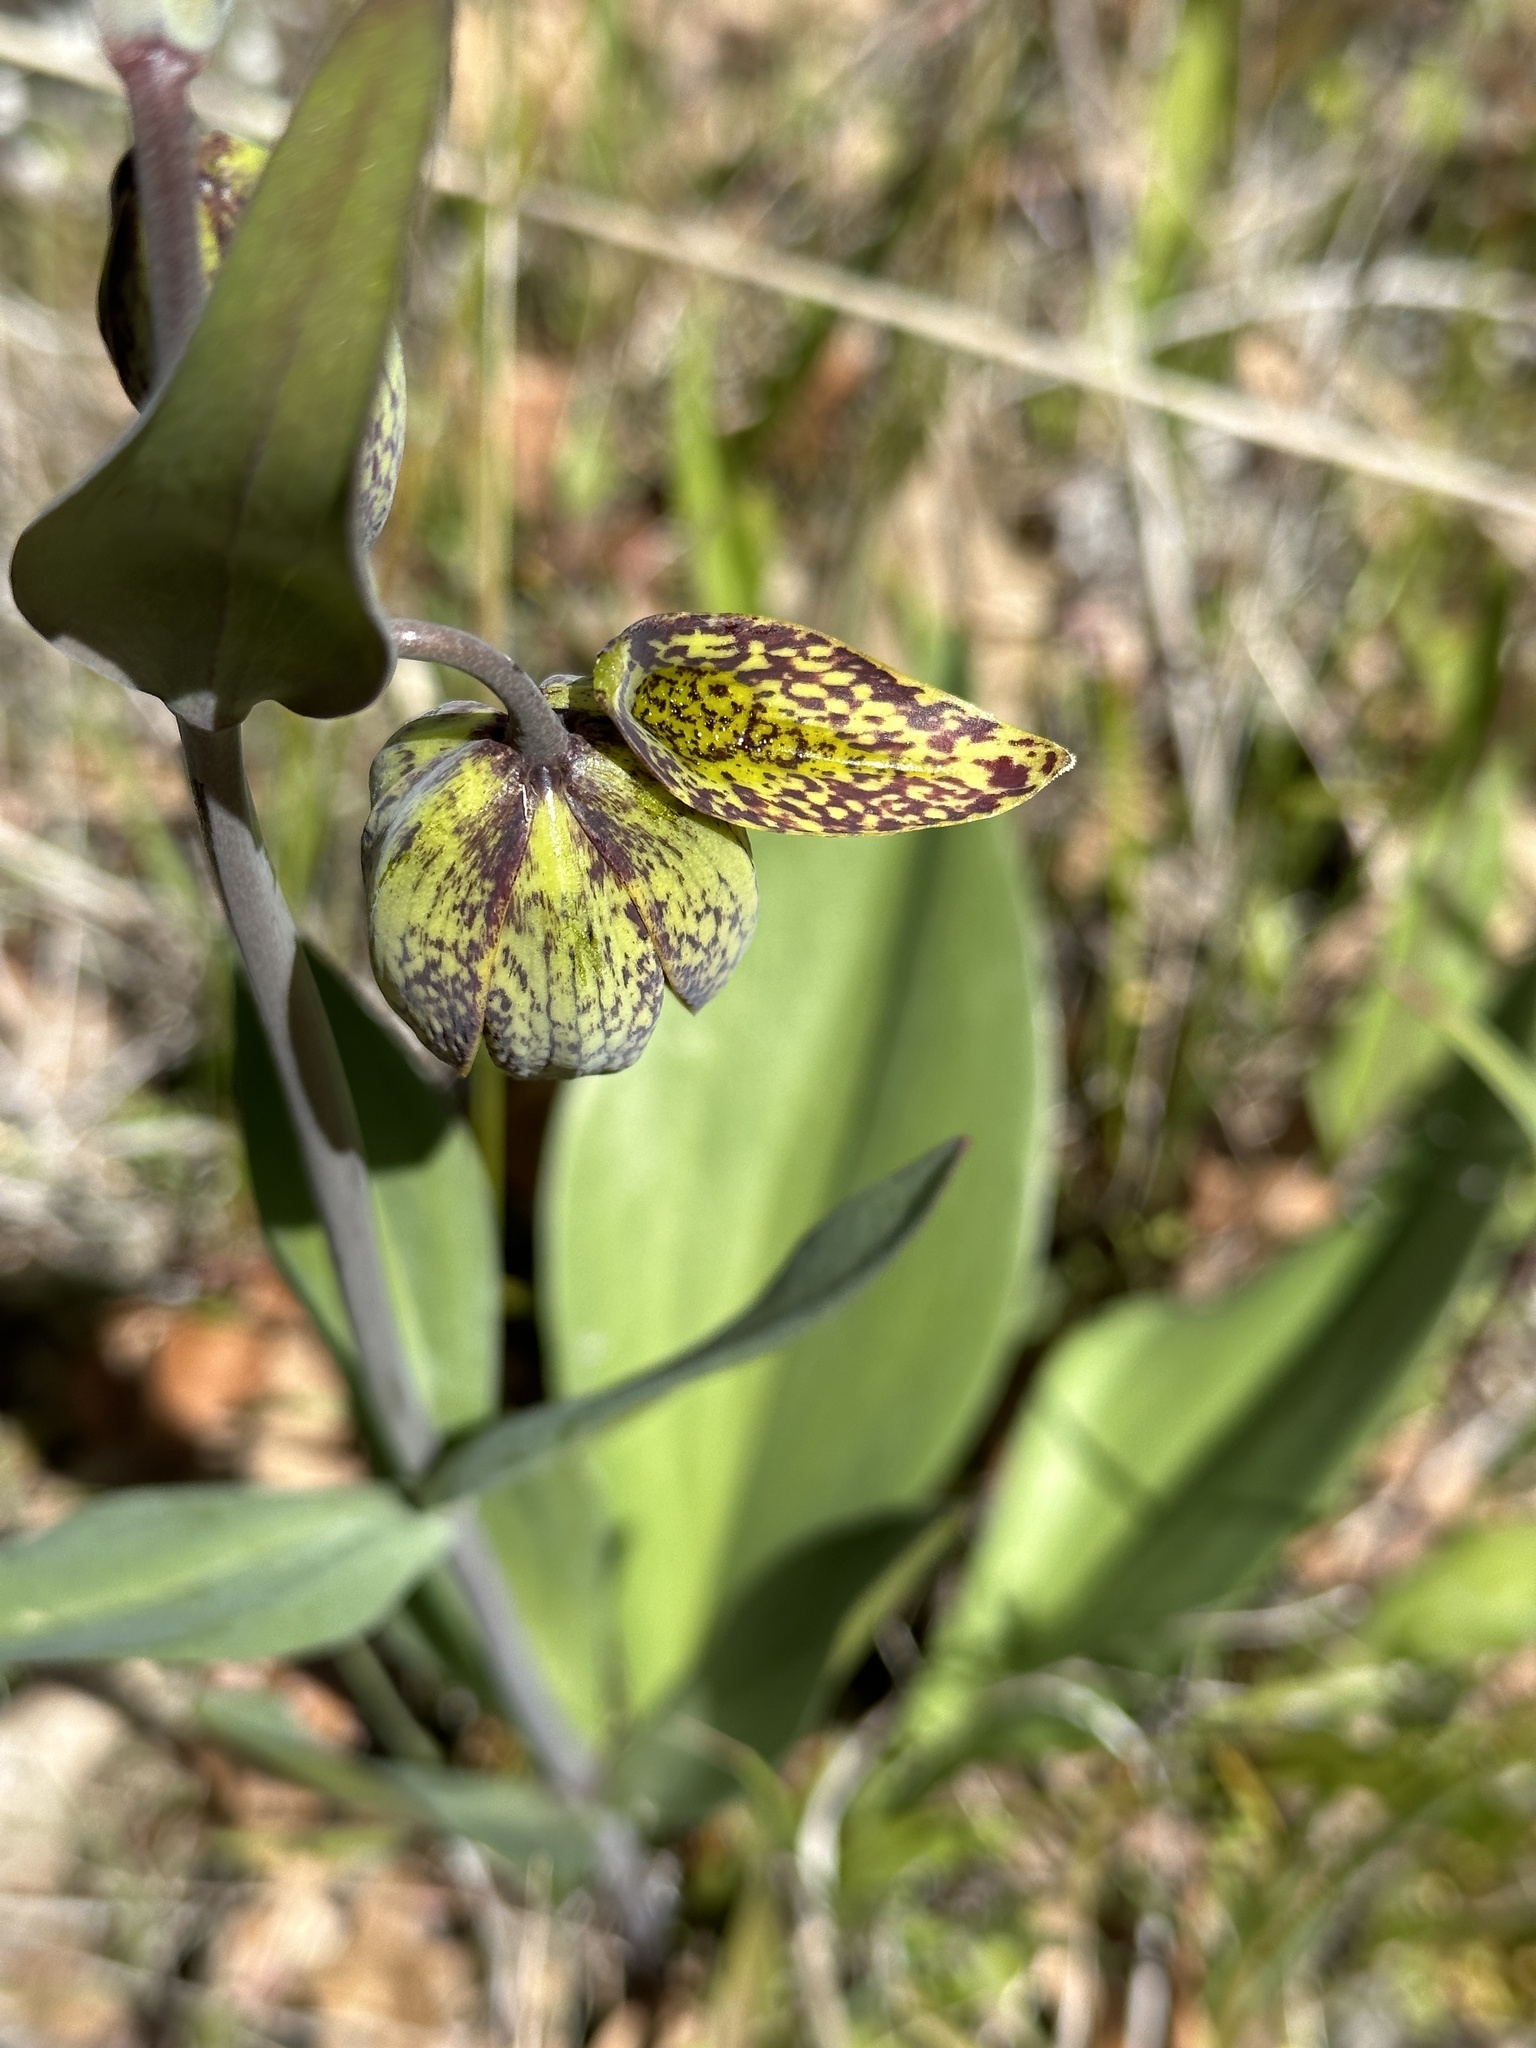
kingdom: Plantae
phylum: Tracheophyta
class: Liliopsida
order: Liliales
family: Liliaceae
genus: Fritillaria
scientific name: Fritillaria affinis
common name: Ojai fritillary
